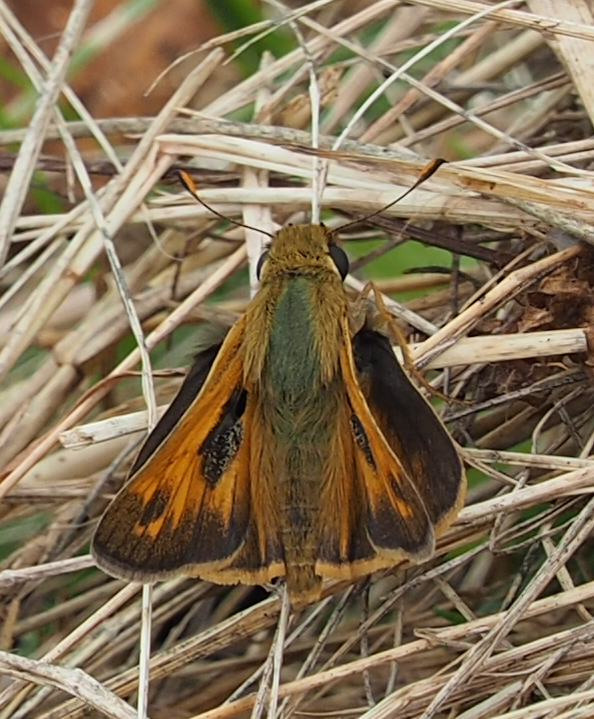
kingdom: Animalia
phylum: Arthropoda
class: Insecta
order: Lepidoptera
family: Hesperiidae
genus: Atalopedes
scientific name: Atalopedes
